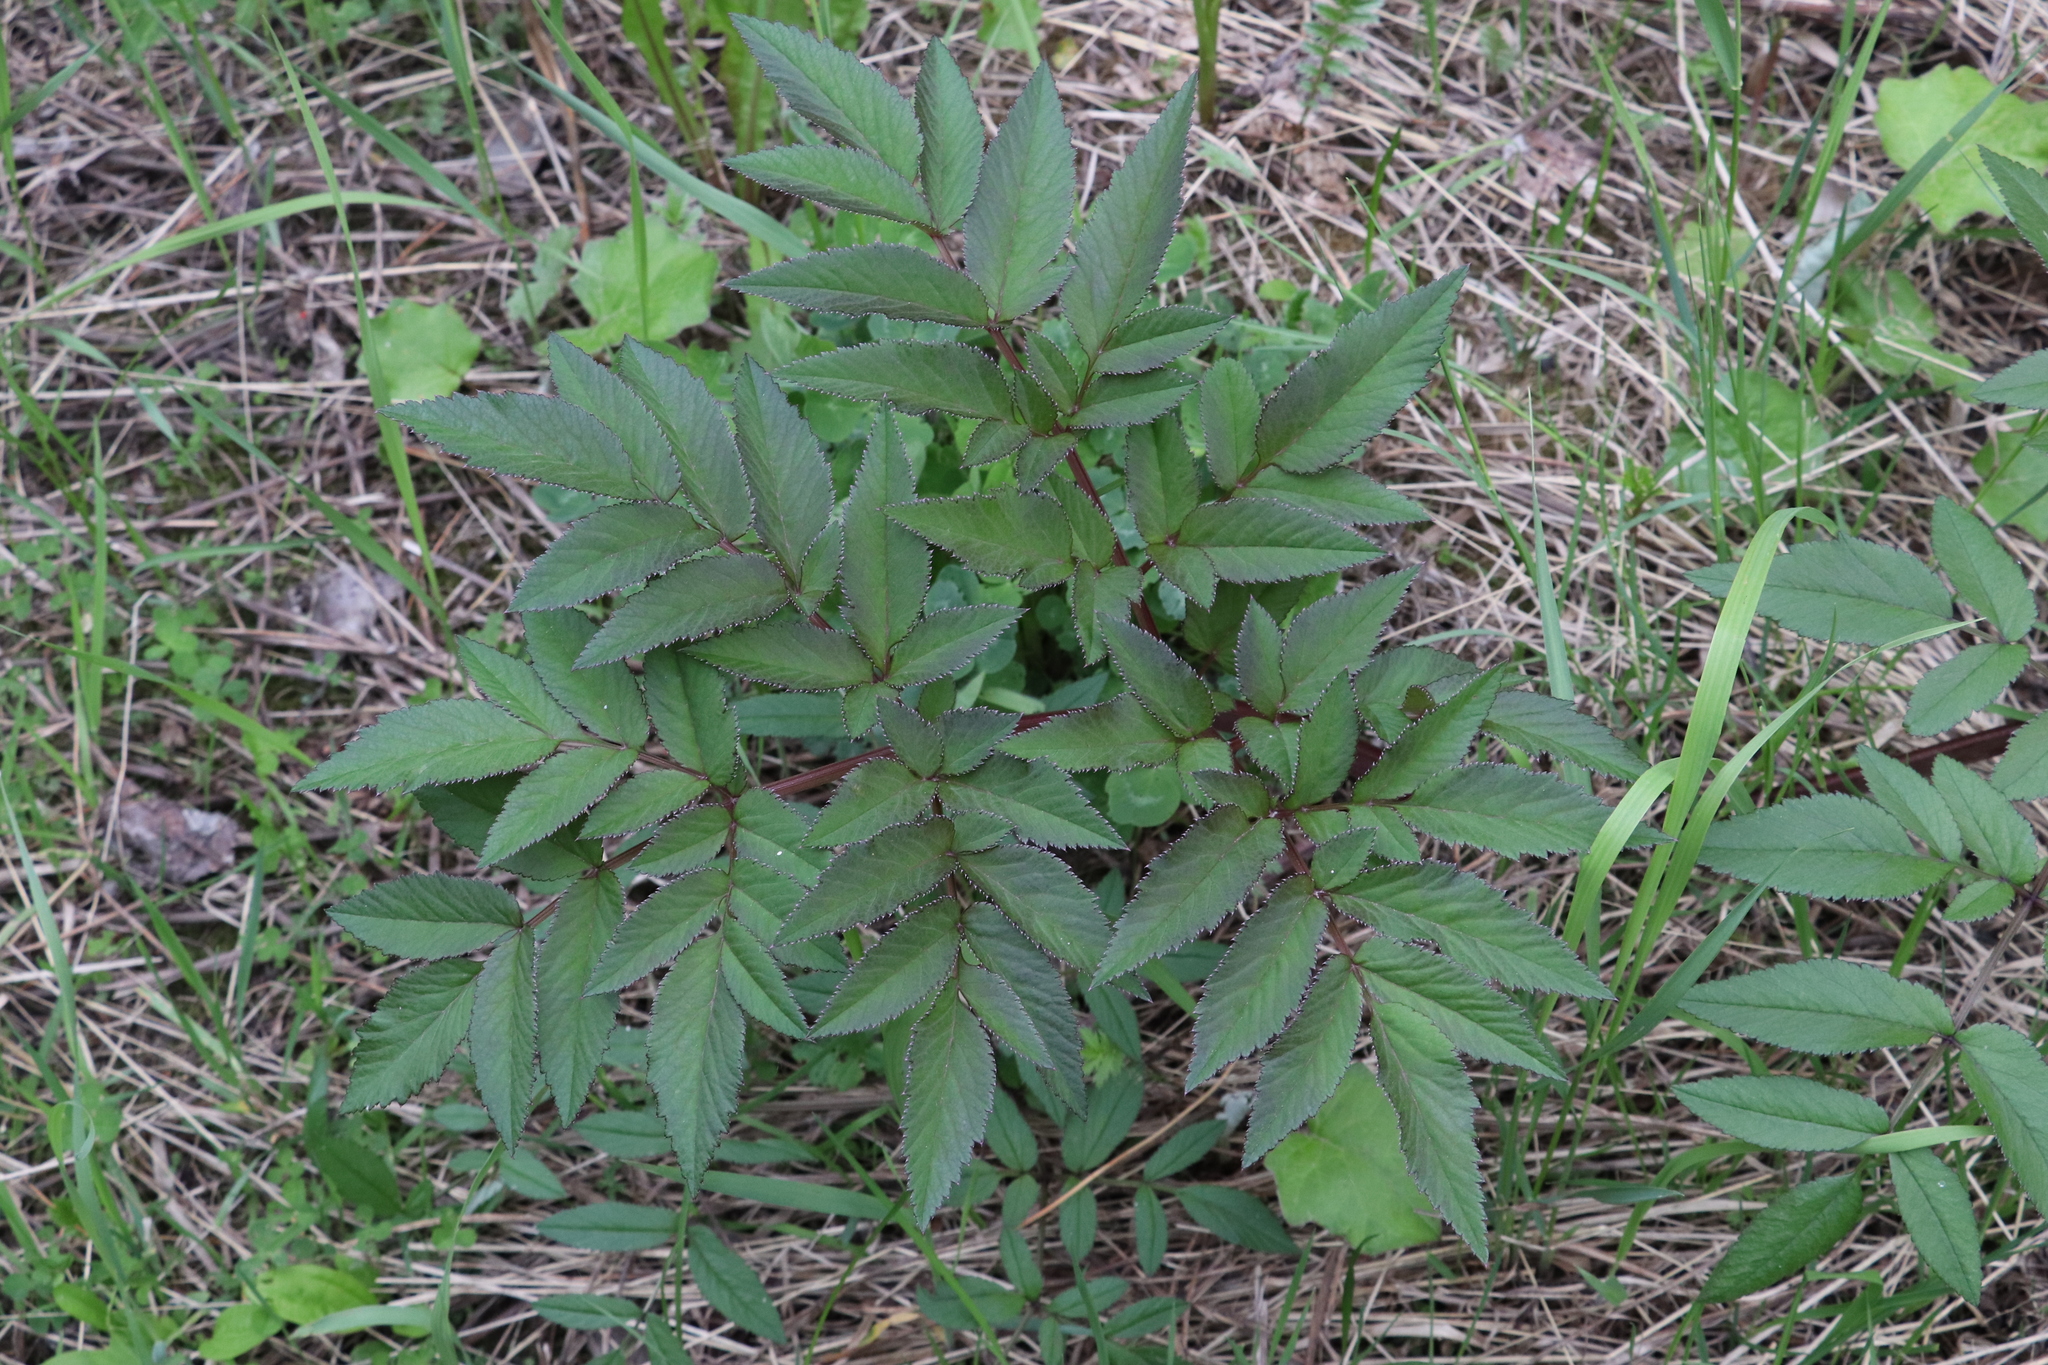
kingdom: Plantae
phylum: Tracheophyta
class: Magnoliopsida
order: Apiales
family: Apiaceae
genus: Angelica
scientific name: Angelica sylvestris
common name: Wild angelica
